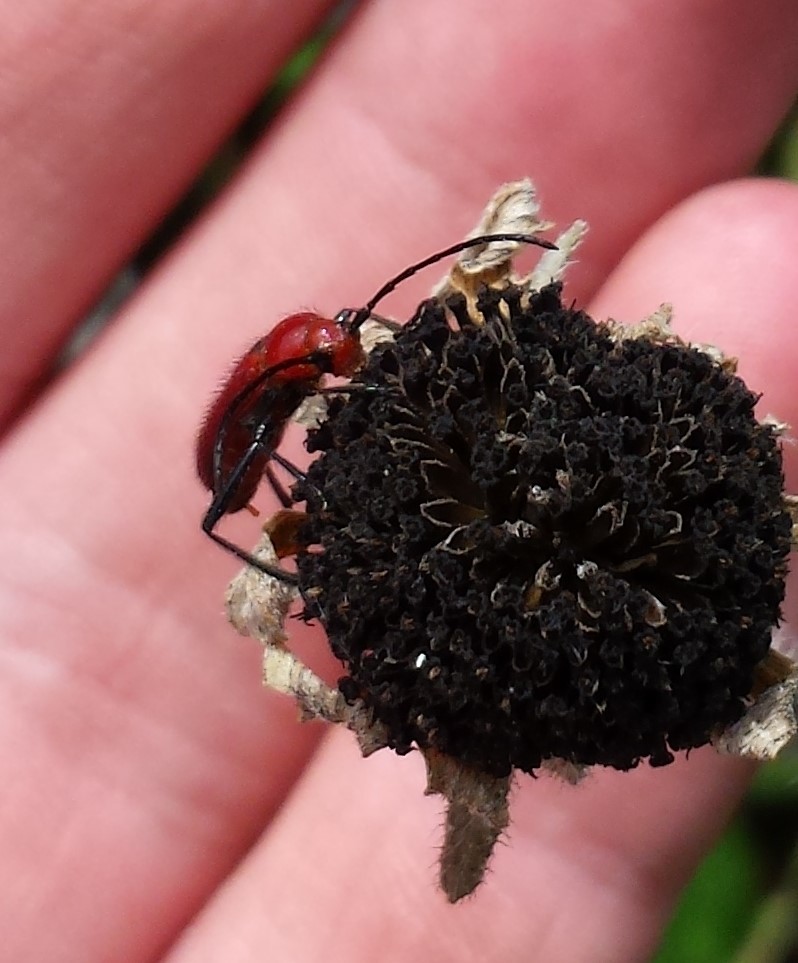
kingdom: Animalia
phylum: Arthropoda
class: Insecta
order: Coleoptera
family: Cerambycidae
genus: Batyle
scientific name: Batyle suturalis
